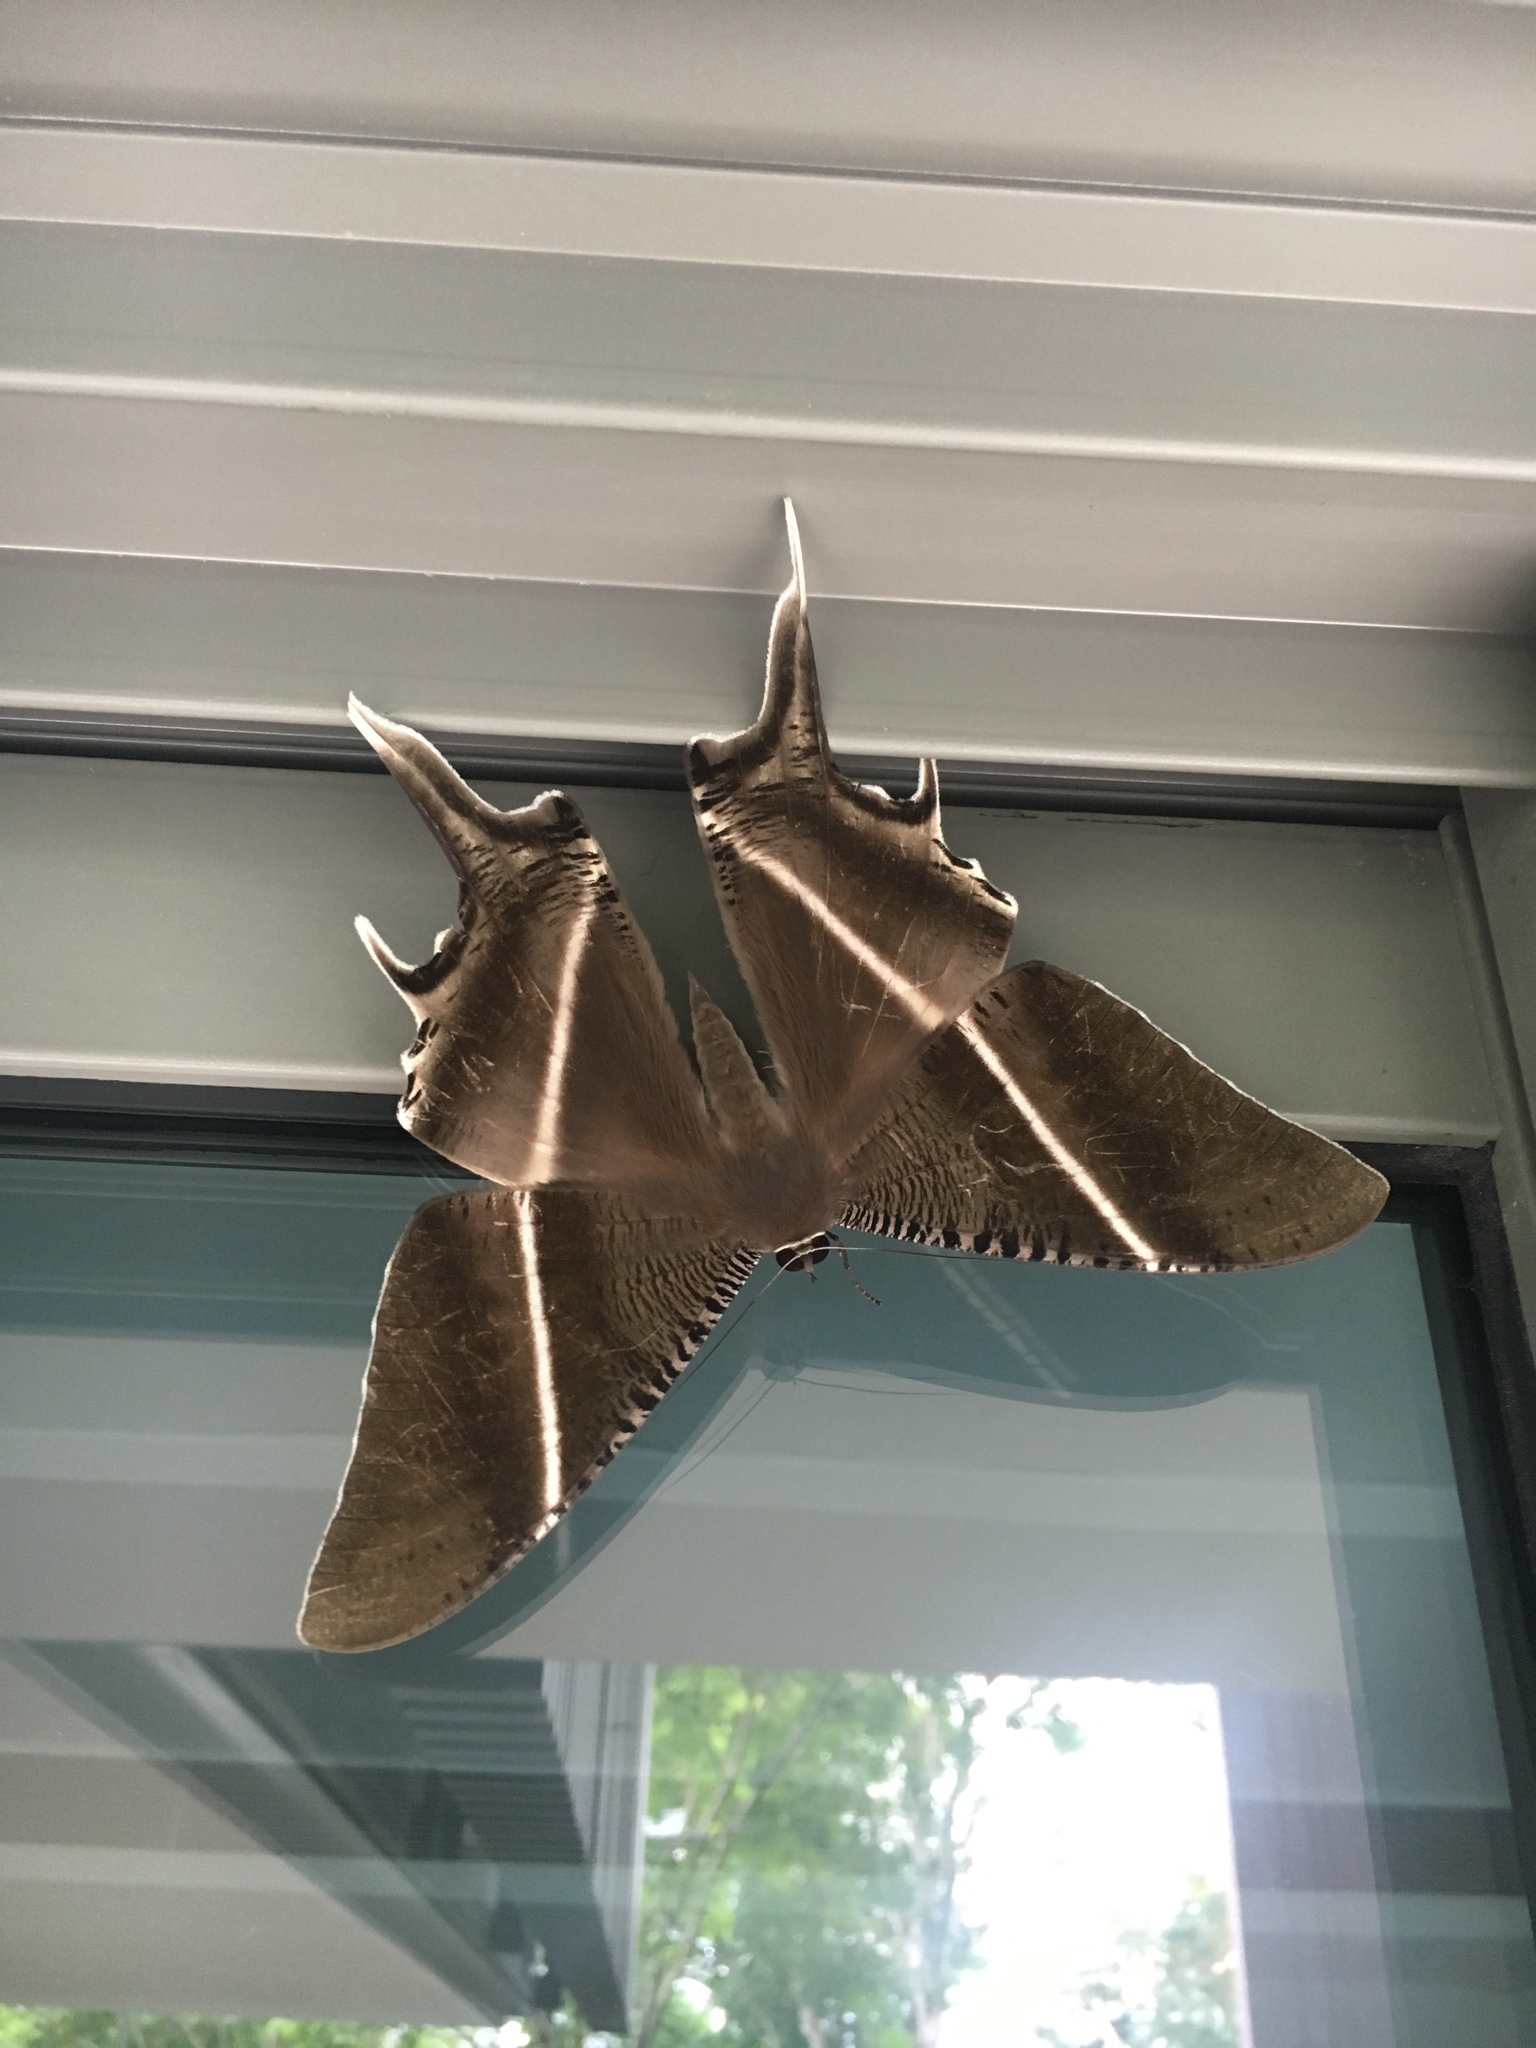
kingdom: Animalia
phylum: Arthropoda
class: Insecta
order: Lepidoptera
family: Uraniidae
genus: Lyssa
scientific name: Lyssa zampa
